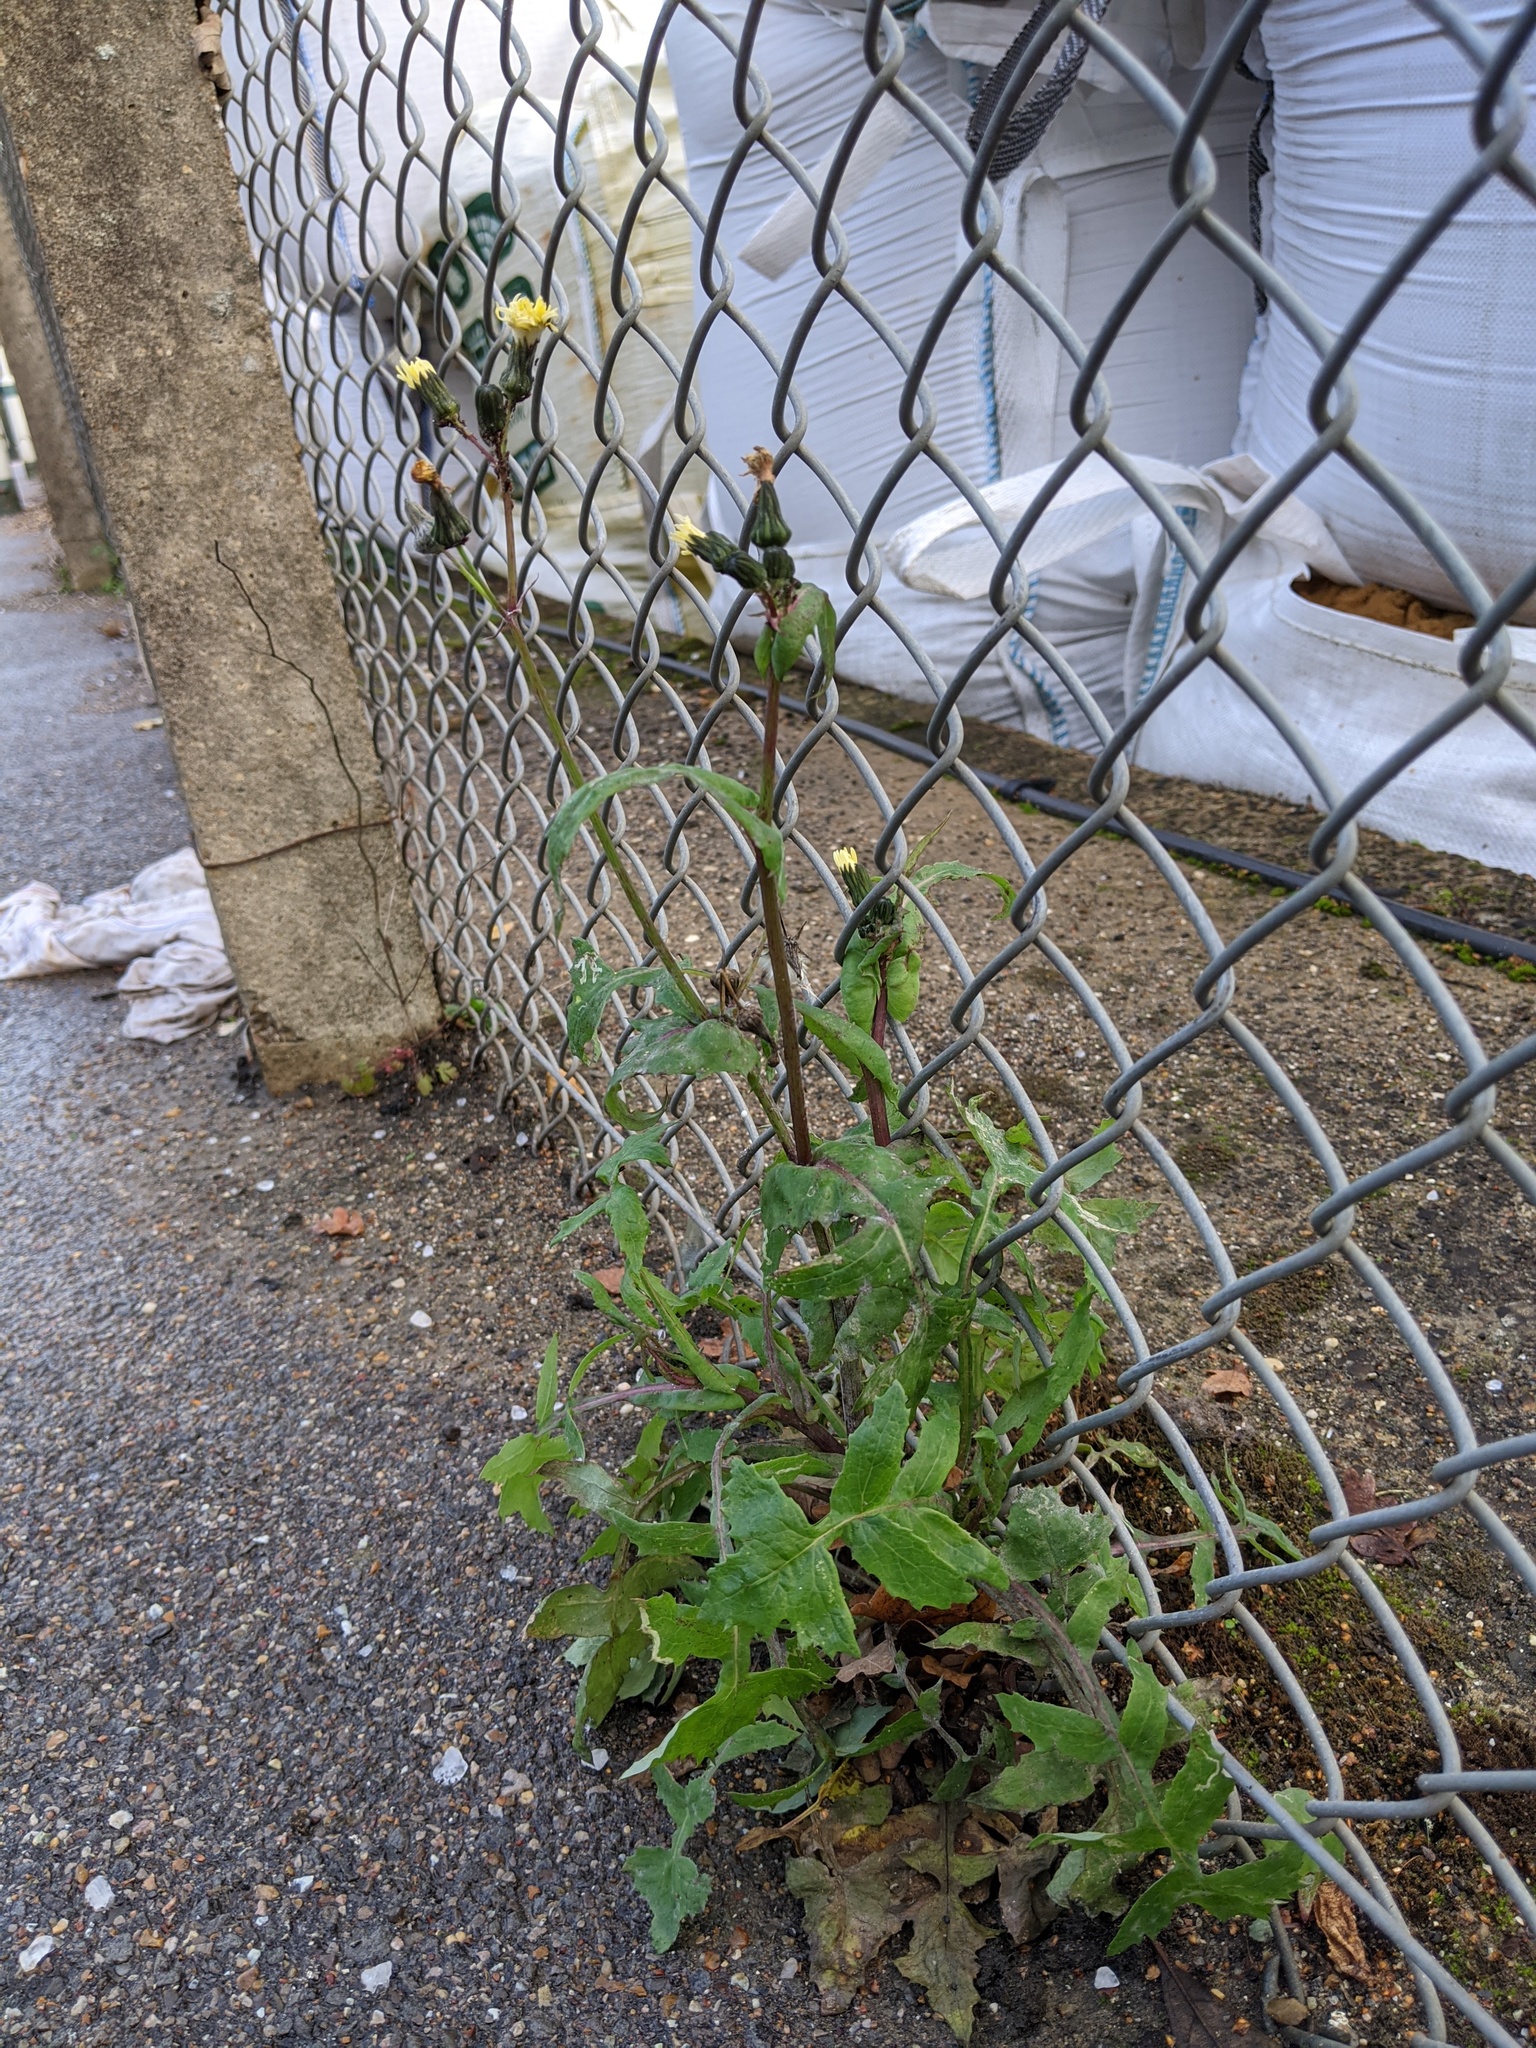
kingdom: Plantae
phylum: Tracheophyta
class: Magnoliopsida
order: Asterales
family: Asteraceae
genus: Sonchus
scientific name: Sonchus oleraceus
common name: Common sowthistle
